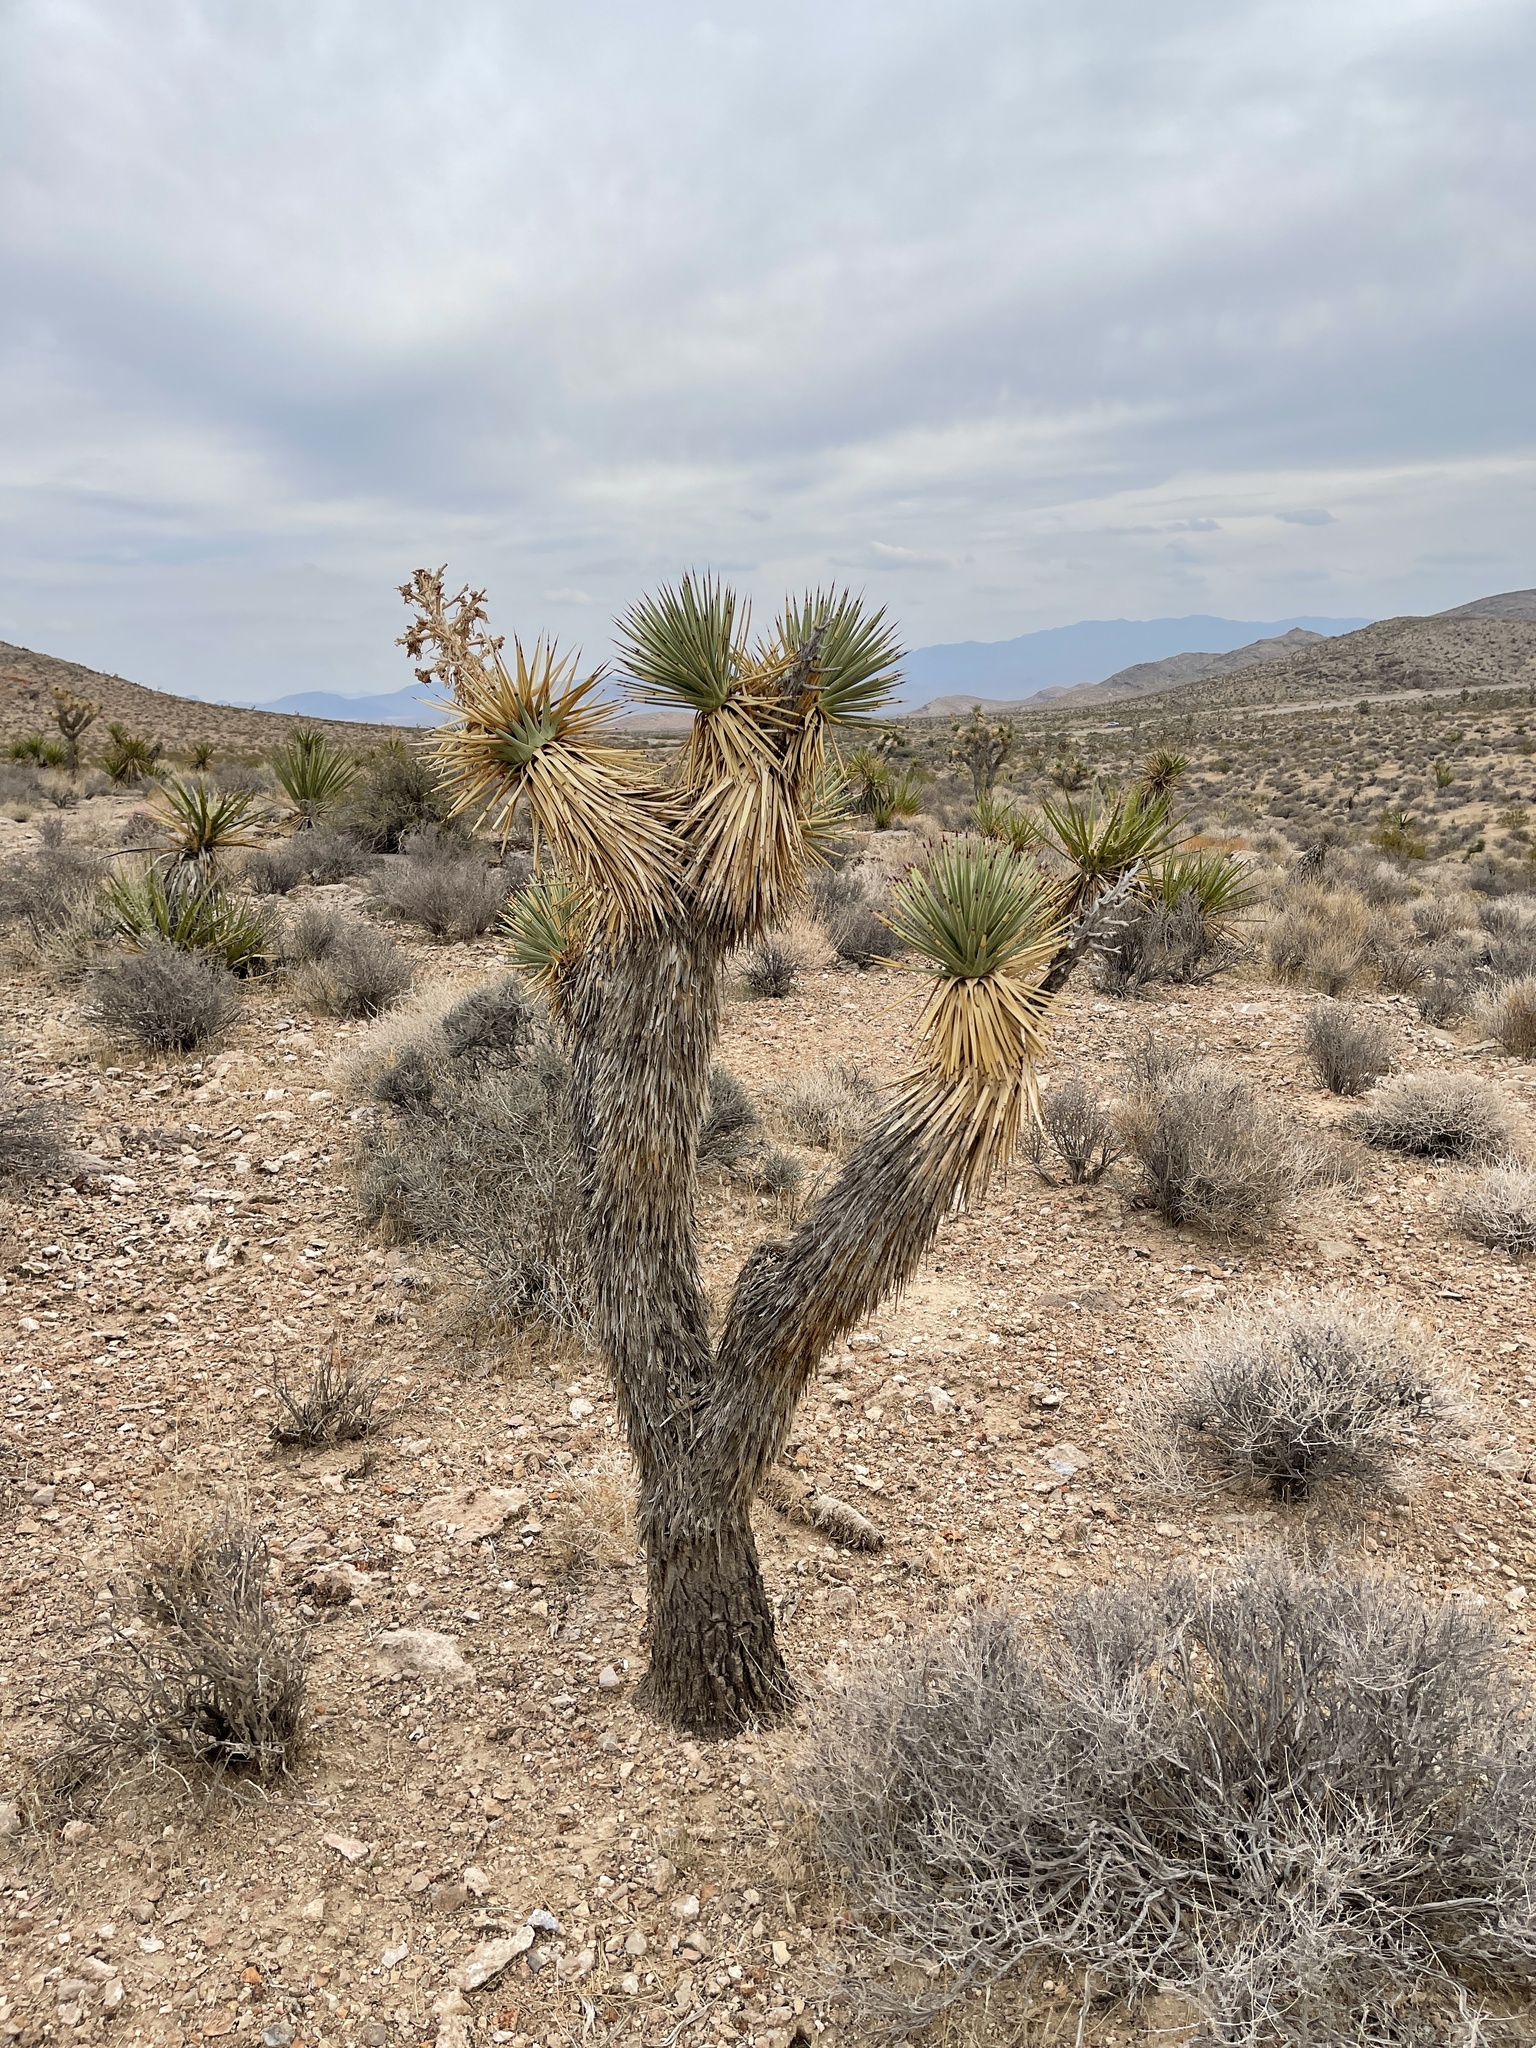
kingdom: Plantae
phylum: Tracheophyta
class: Liliopsida
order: Asparagales
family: Asparagaceae
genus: Yucca
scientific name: Yucca brevifolia
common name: Joshua tree
